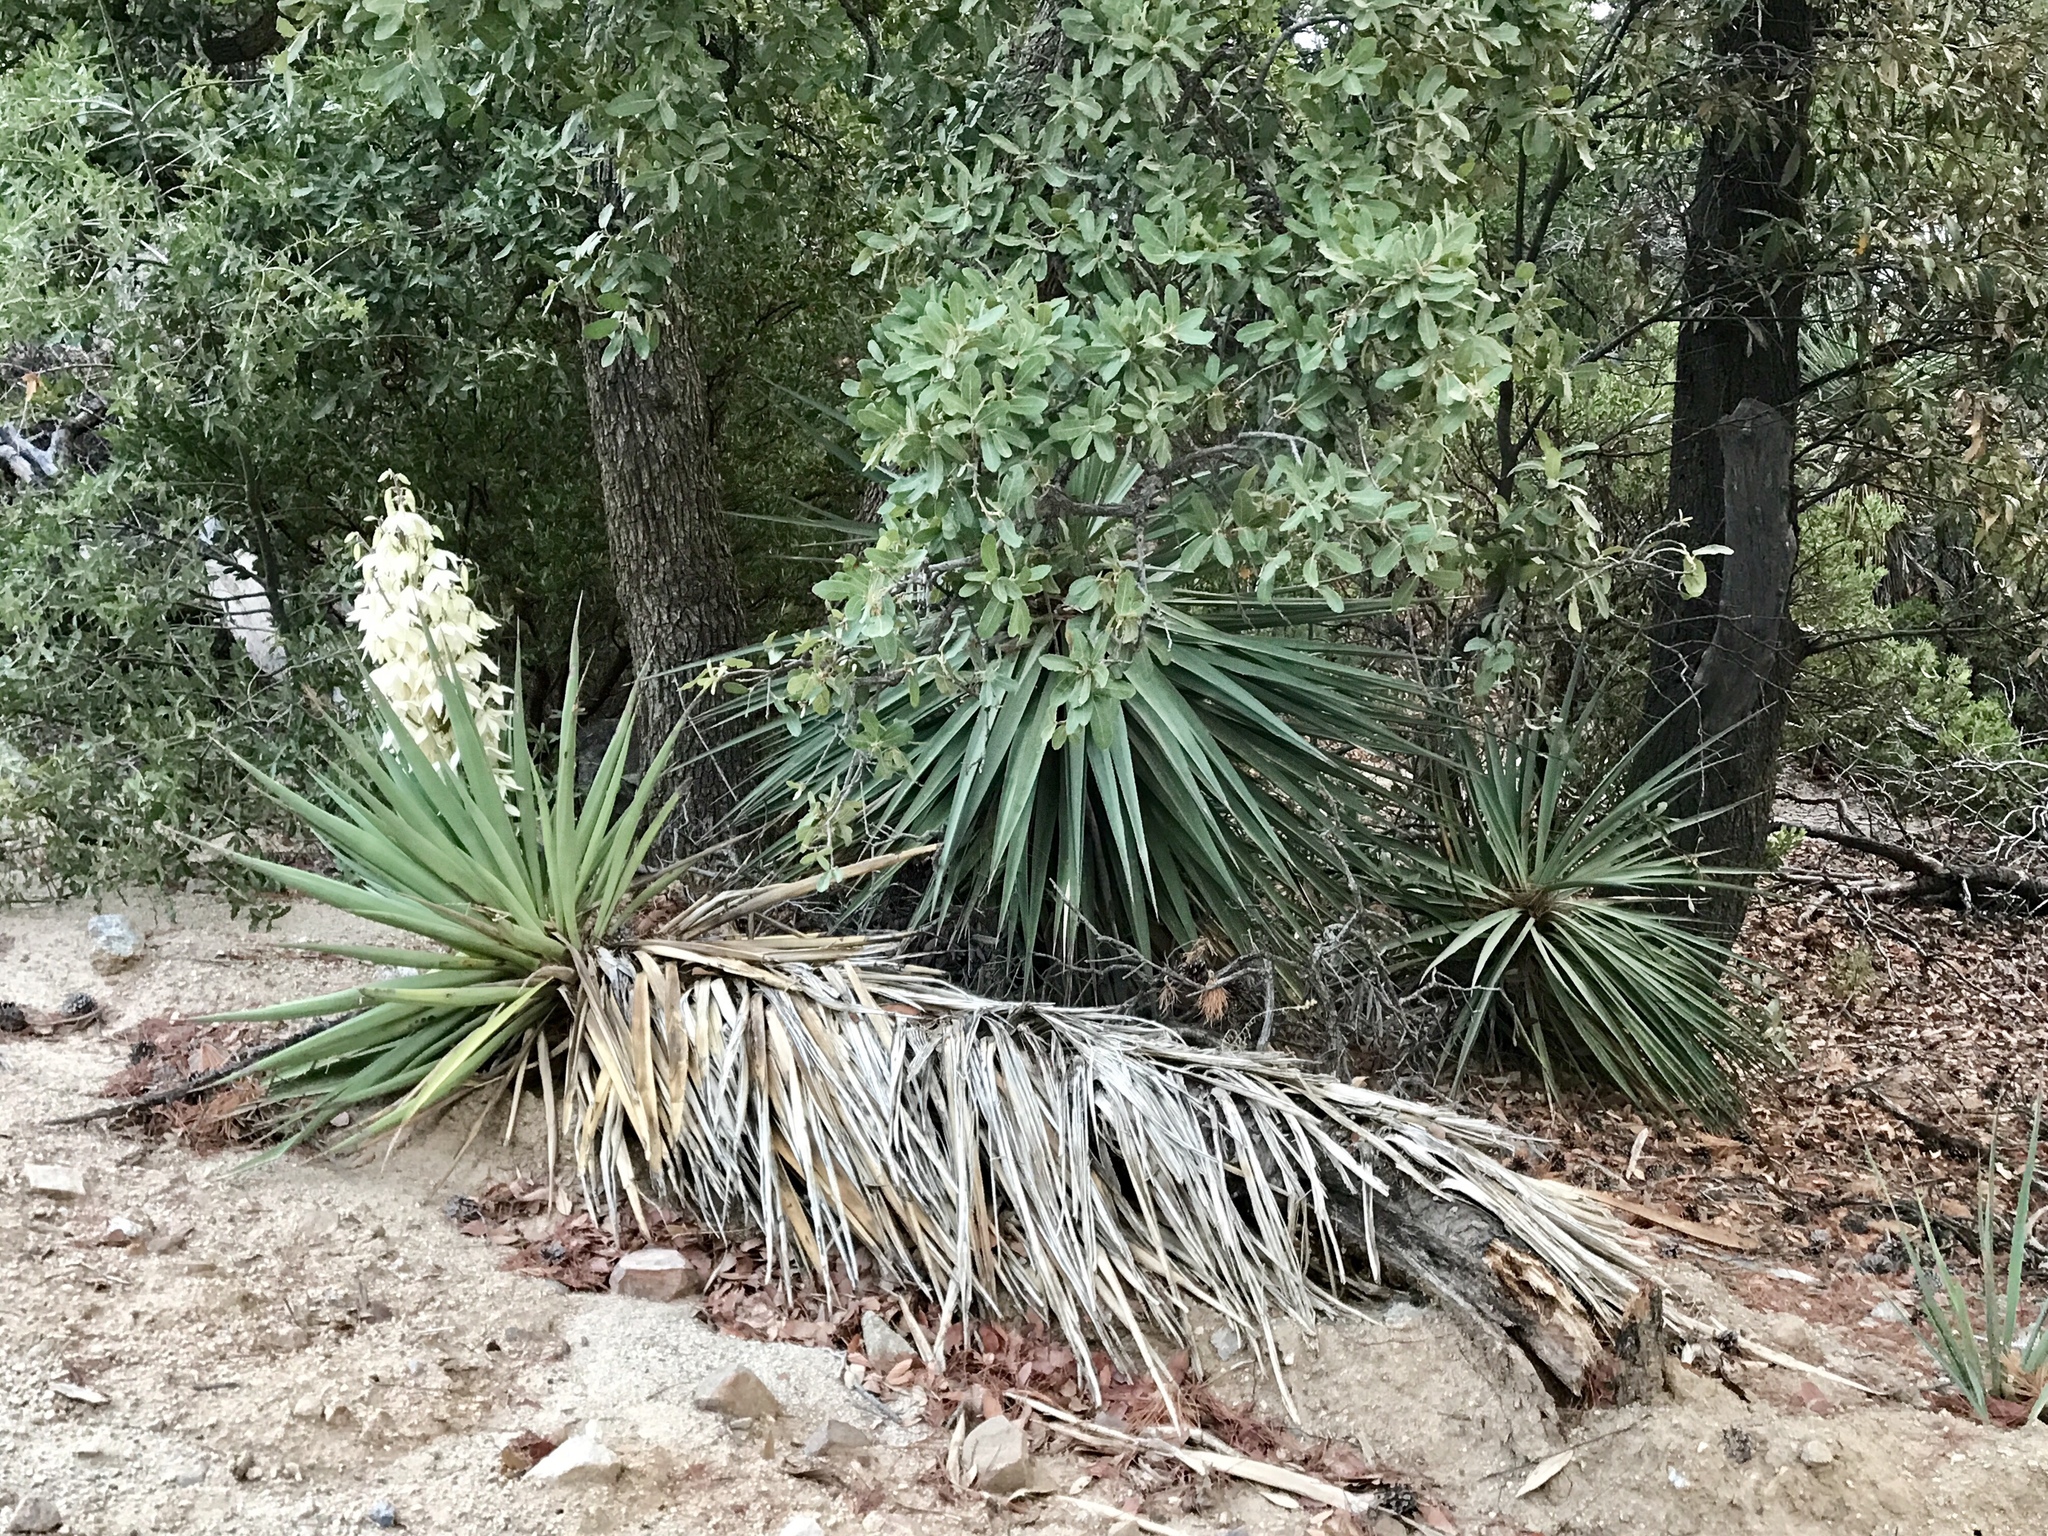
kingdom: Plantae
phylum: Tracheophyta
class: Liliopsida
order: Asparagales
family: Asparagaceae
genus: Yucca
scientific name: Yucca schottii
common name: Hoary yucca
